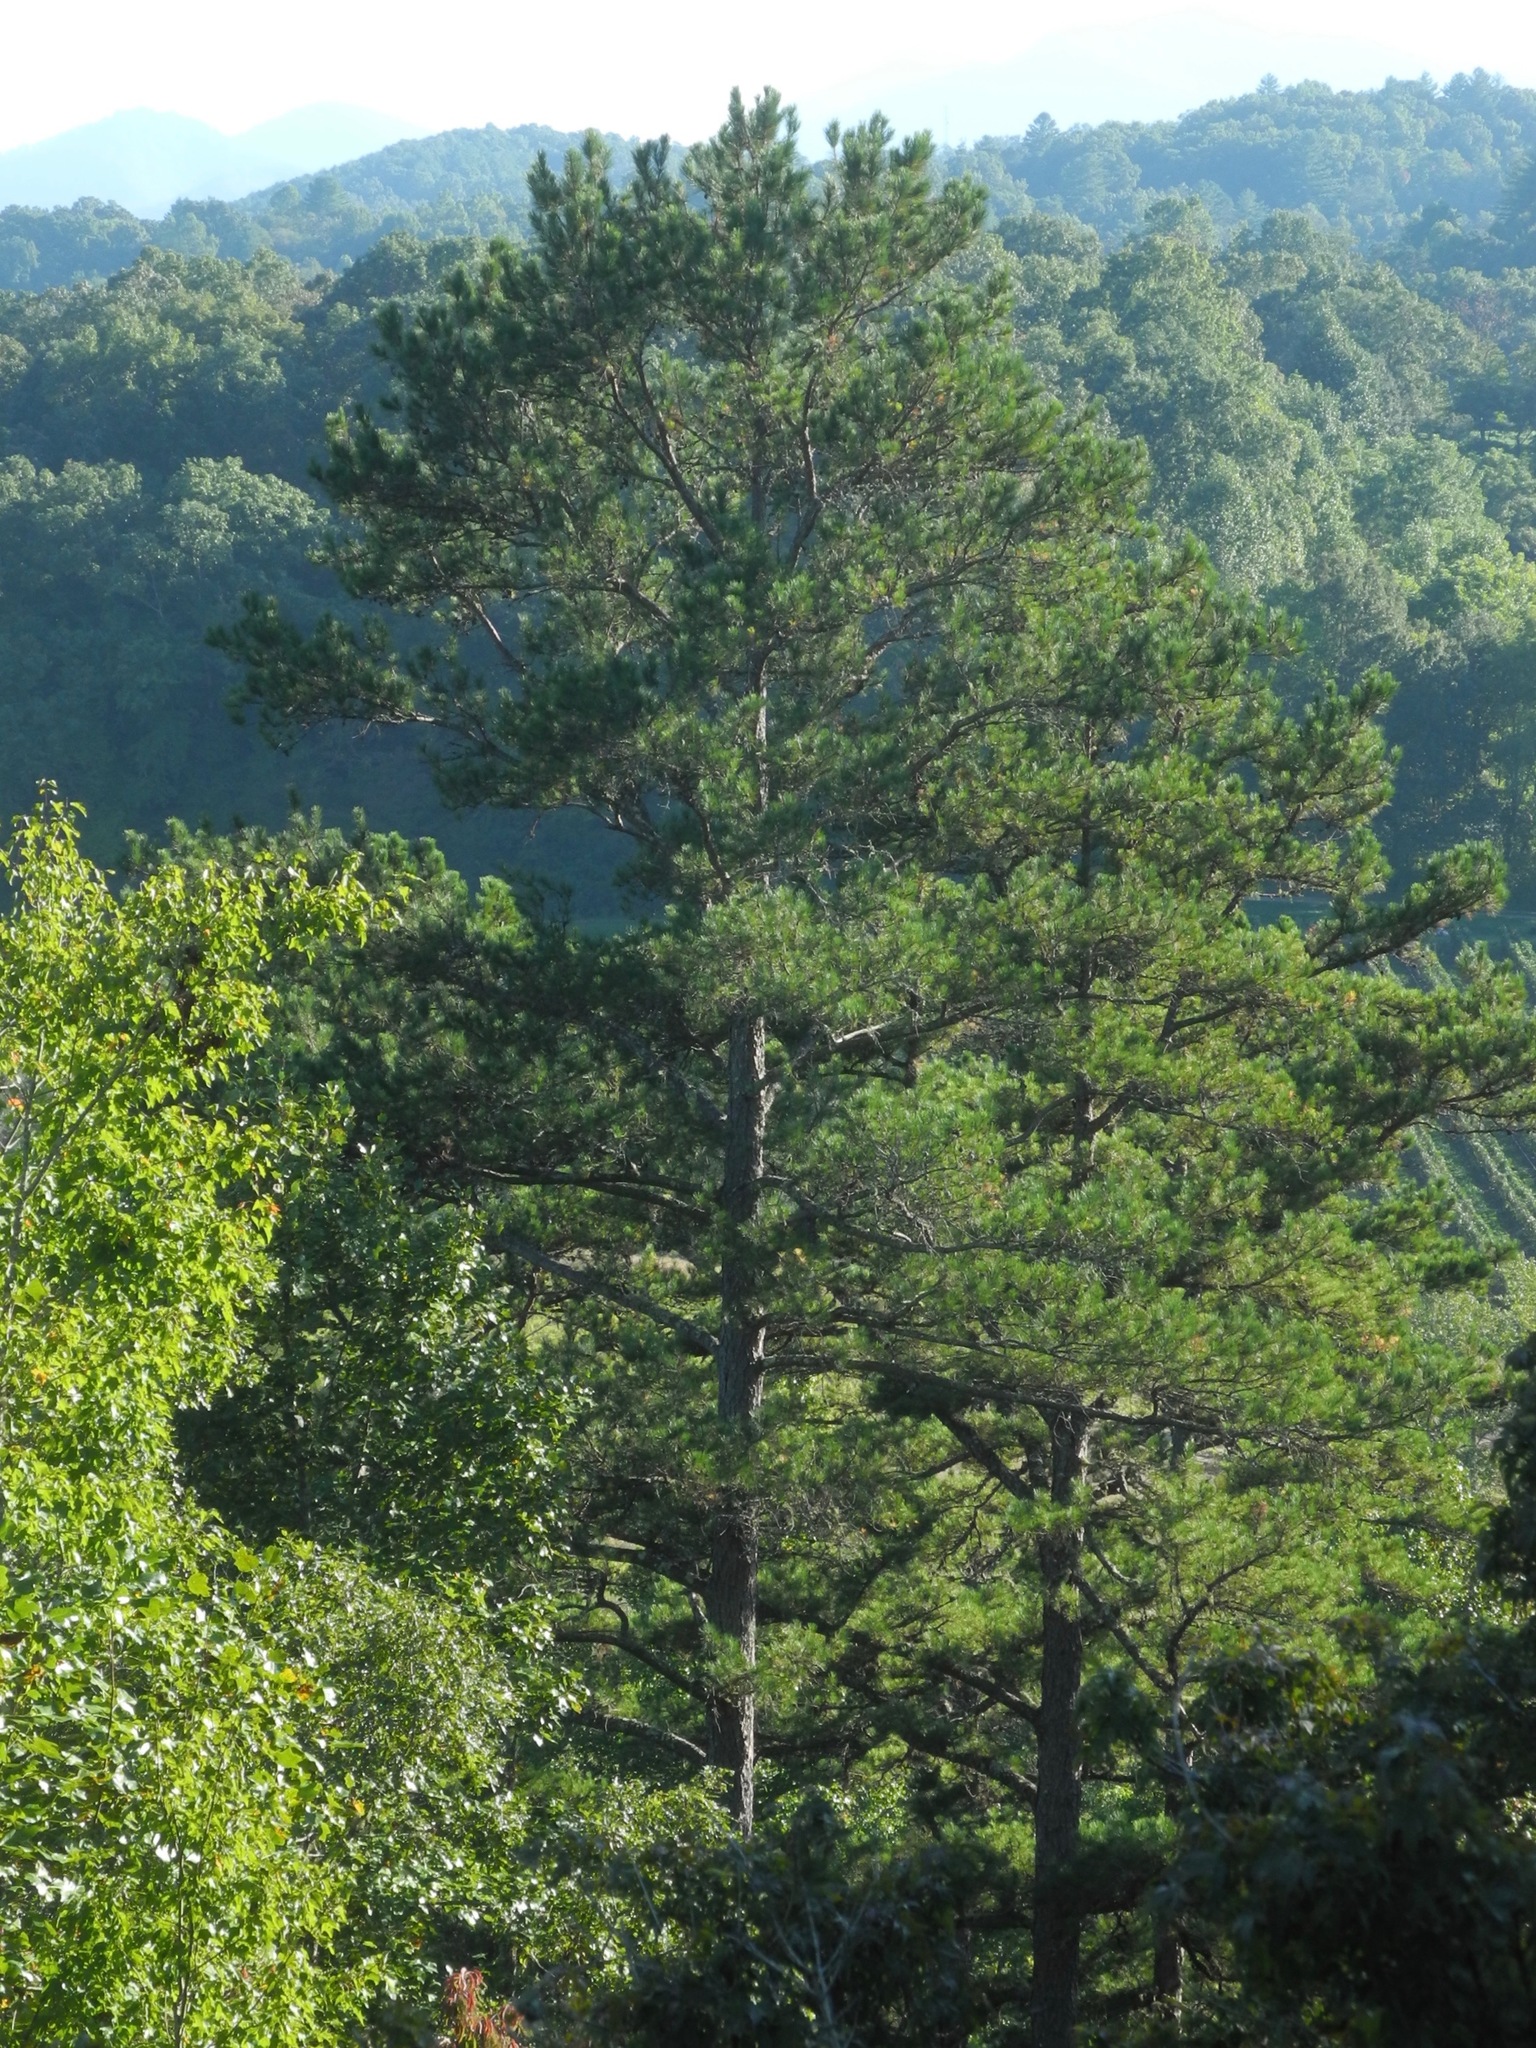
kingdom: Plantae
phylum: Tracheophyta
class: Pinopsida
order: Pinales
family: Pinaceae
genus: Pinus
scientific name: Pinus echinata
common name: Shortleaf pine
